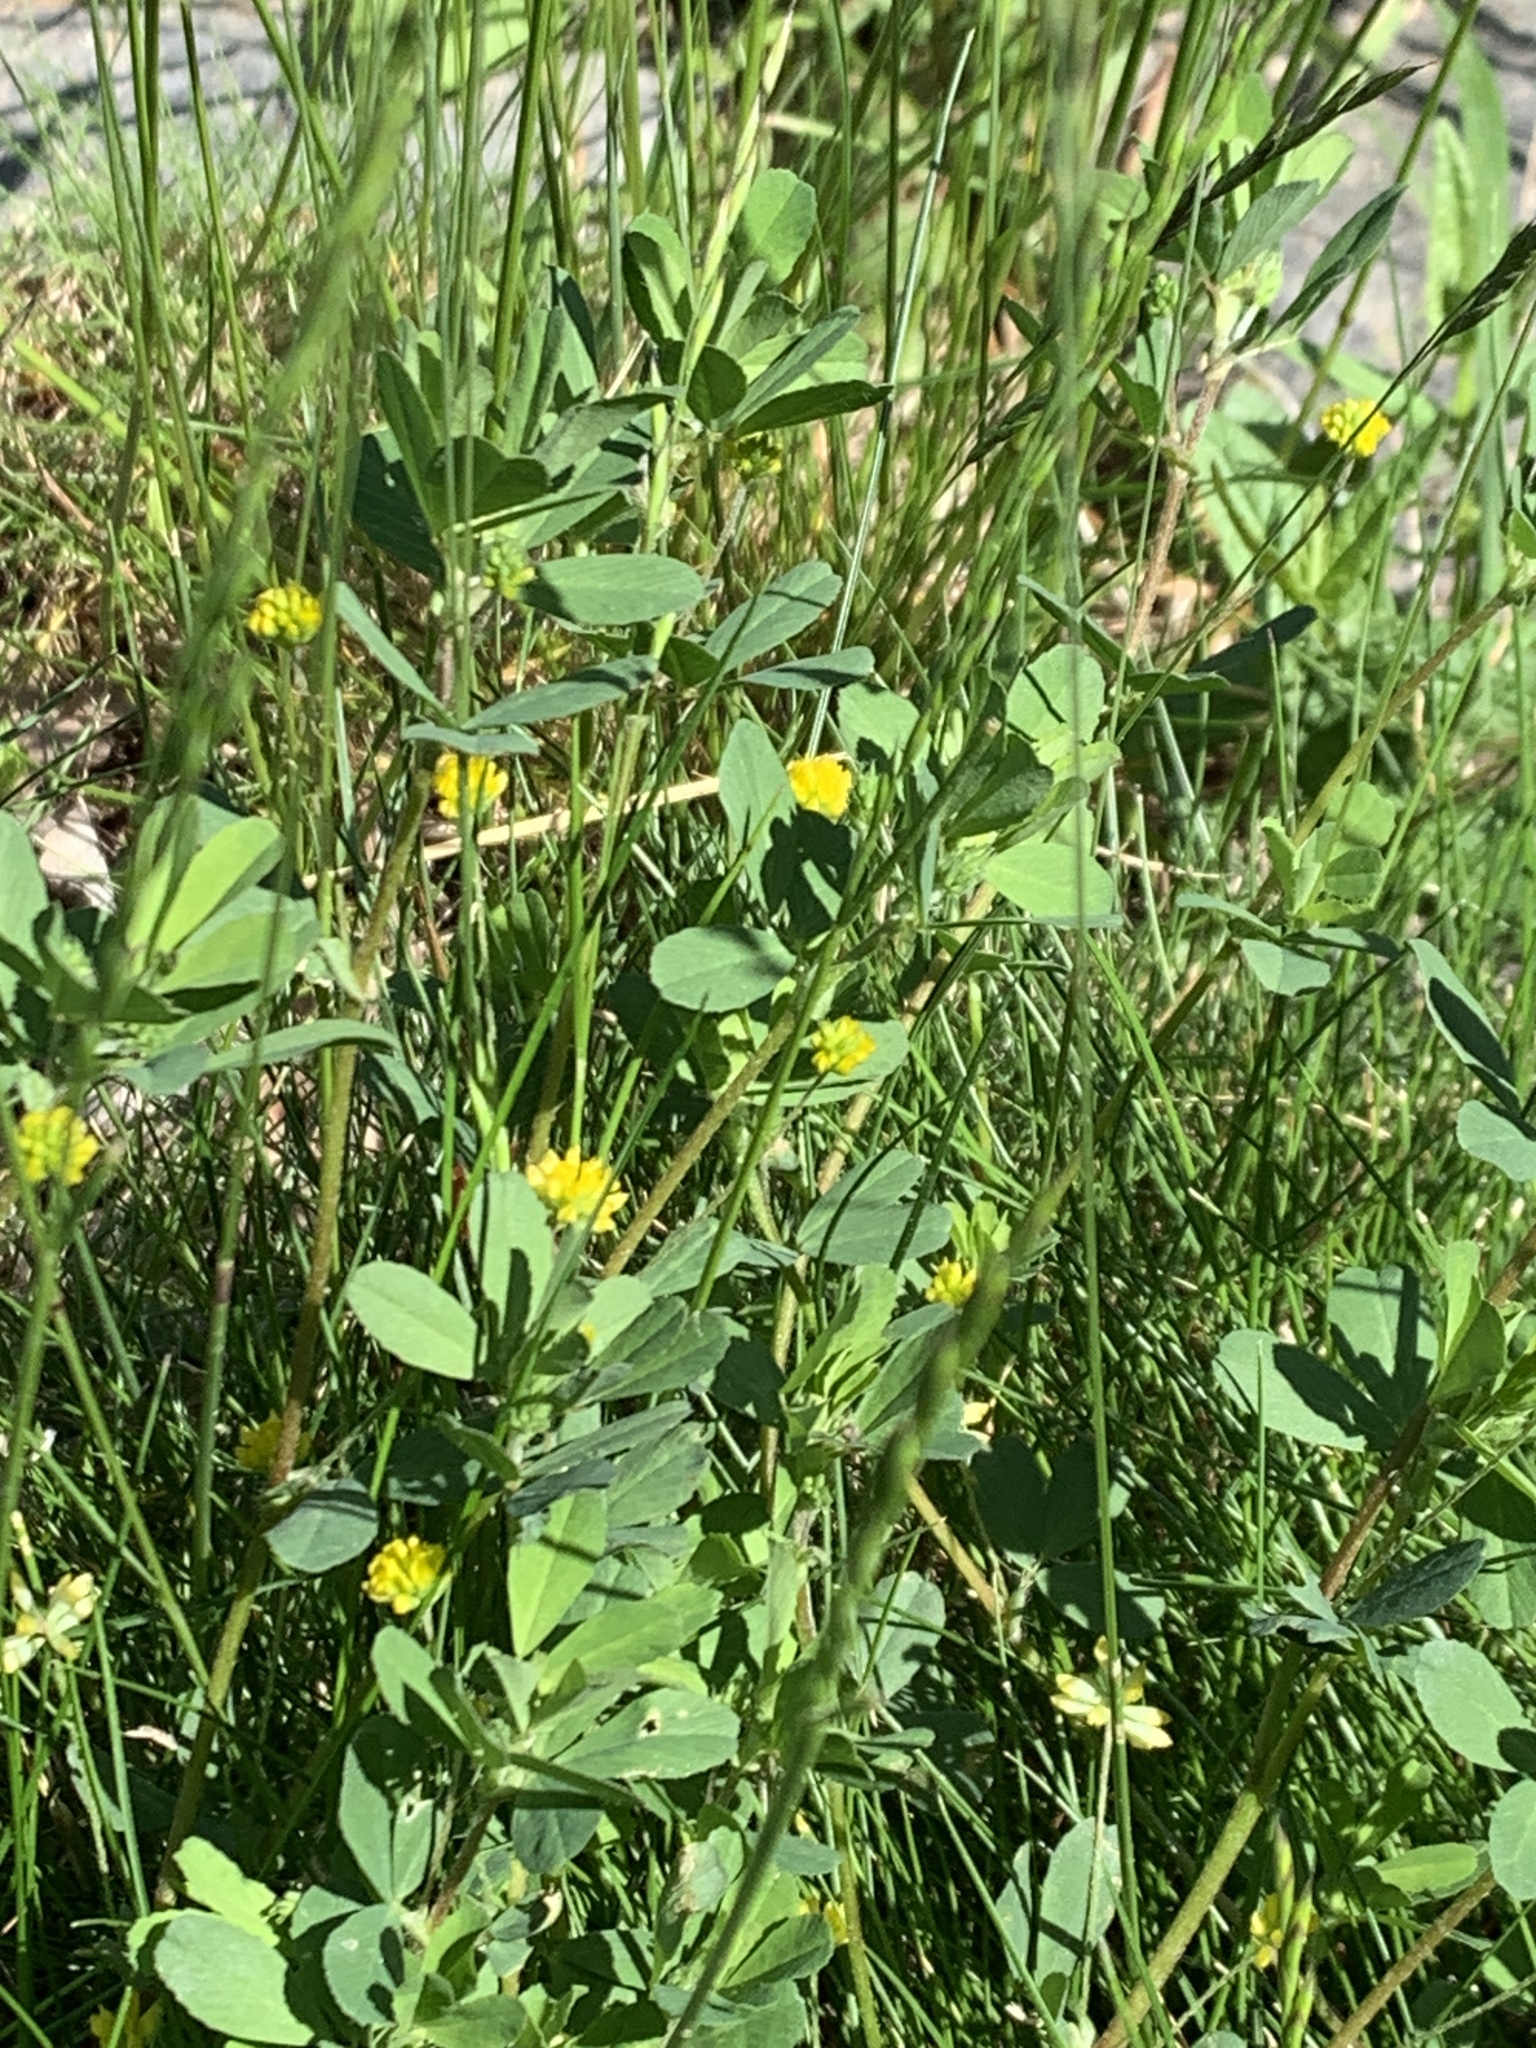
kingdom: Plantae
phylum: Tracheophyta
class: Magnoliopsida
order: Fabales
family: Fabaceae
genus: Trifolium
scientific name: Trifolium dubium
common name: Suckling clover
